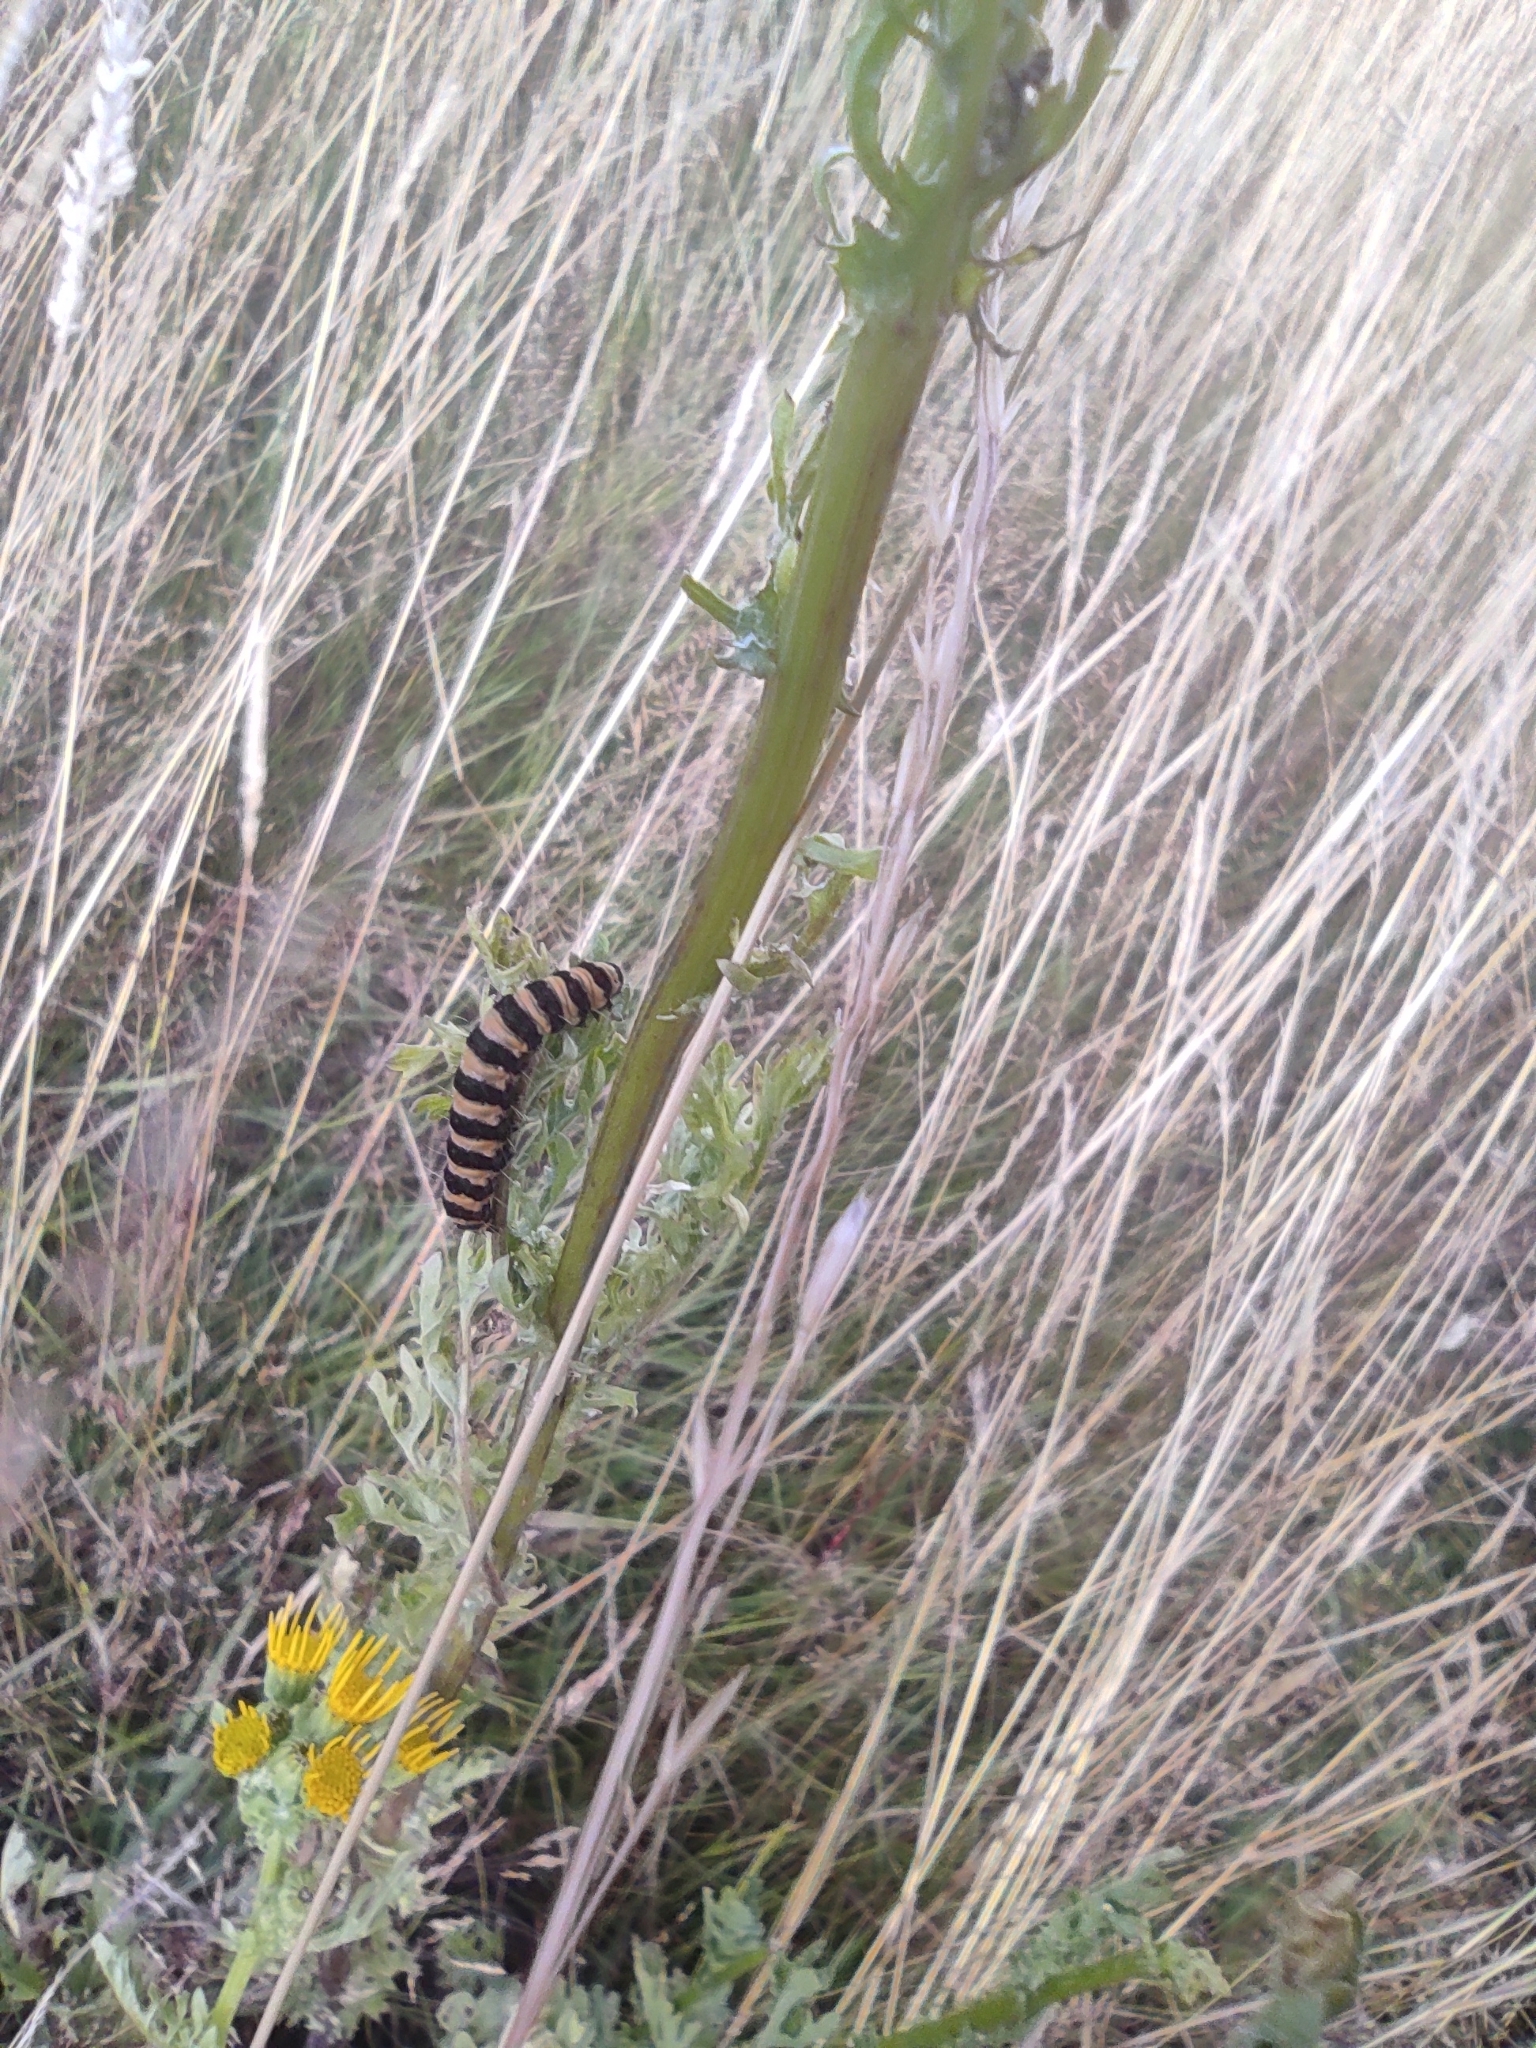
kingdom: Animalia
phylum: Arthropoda
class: Insecta
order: Lepidoptera
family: Erebidae
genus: Tyria
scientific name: Tyria jacobaeae
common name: Cinnabar
